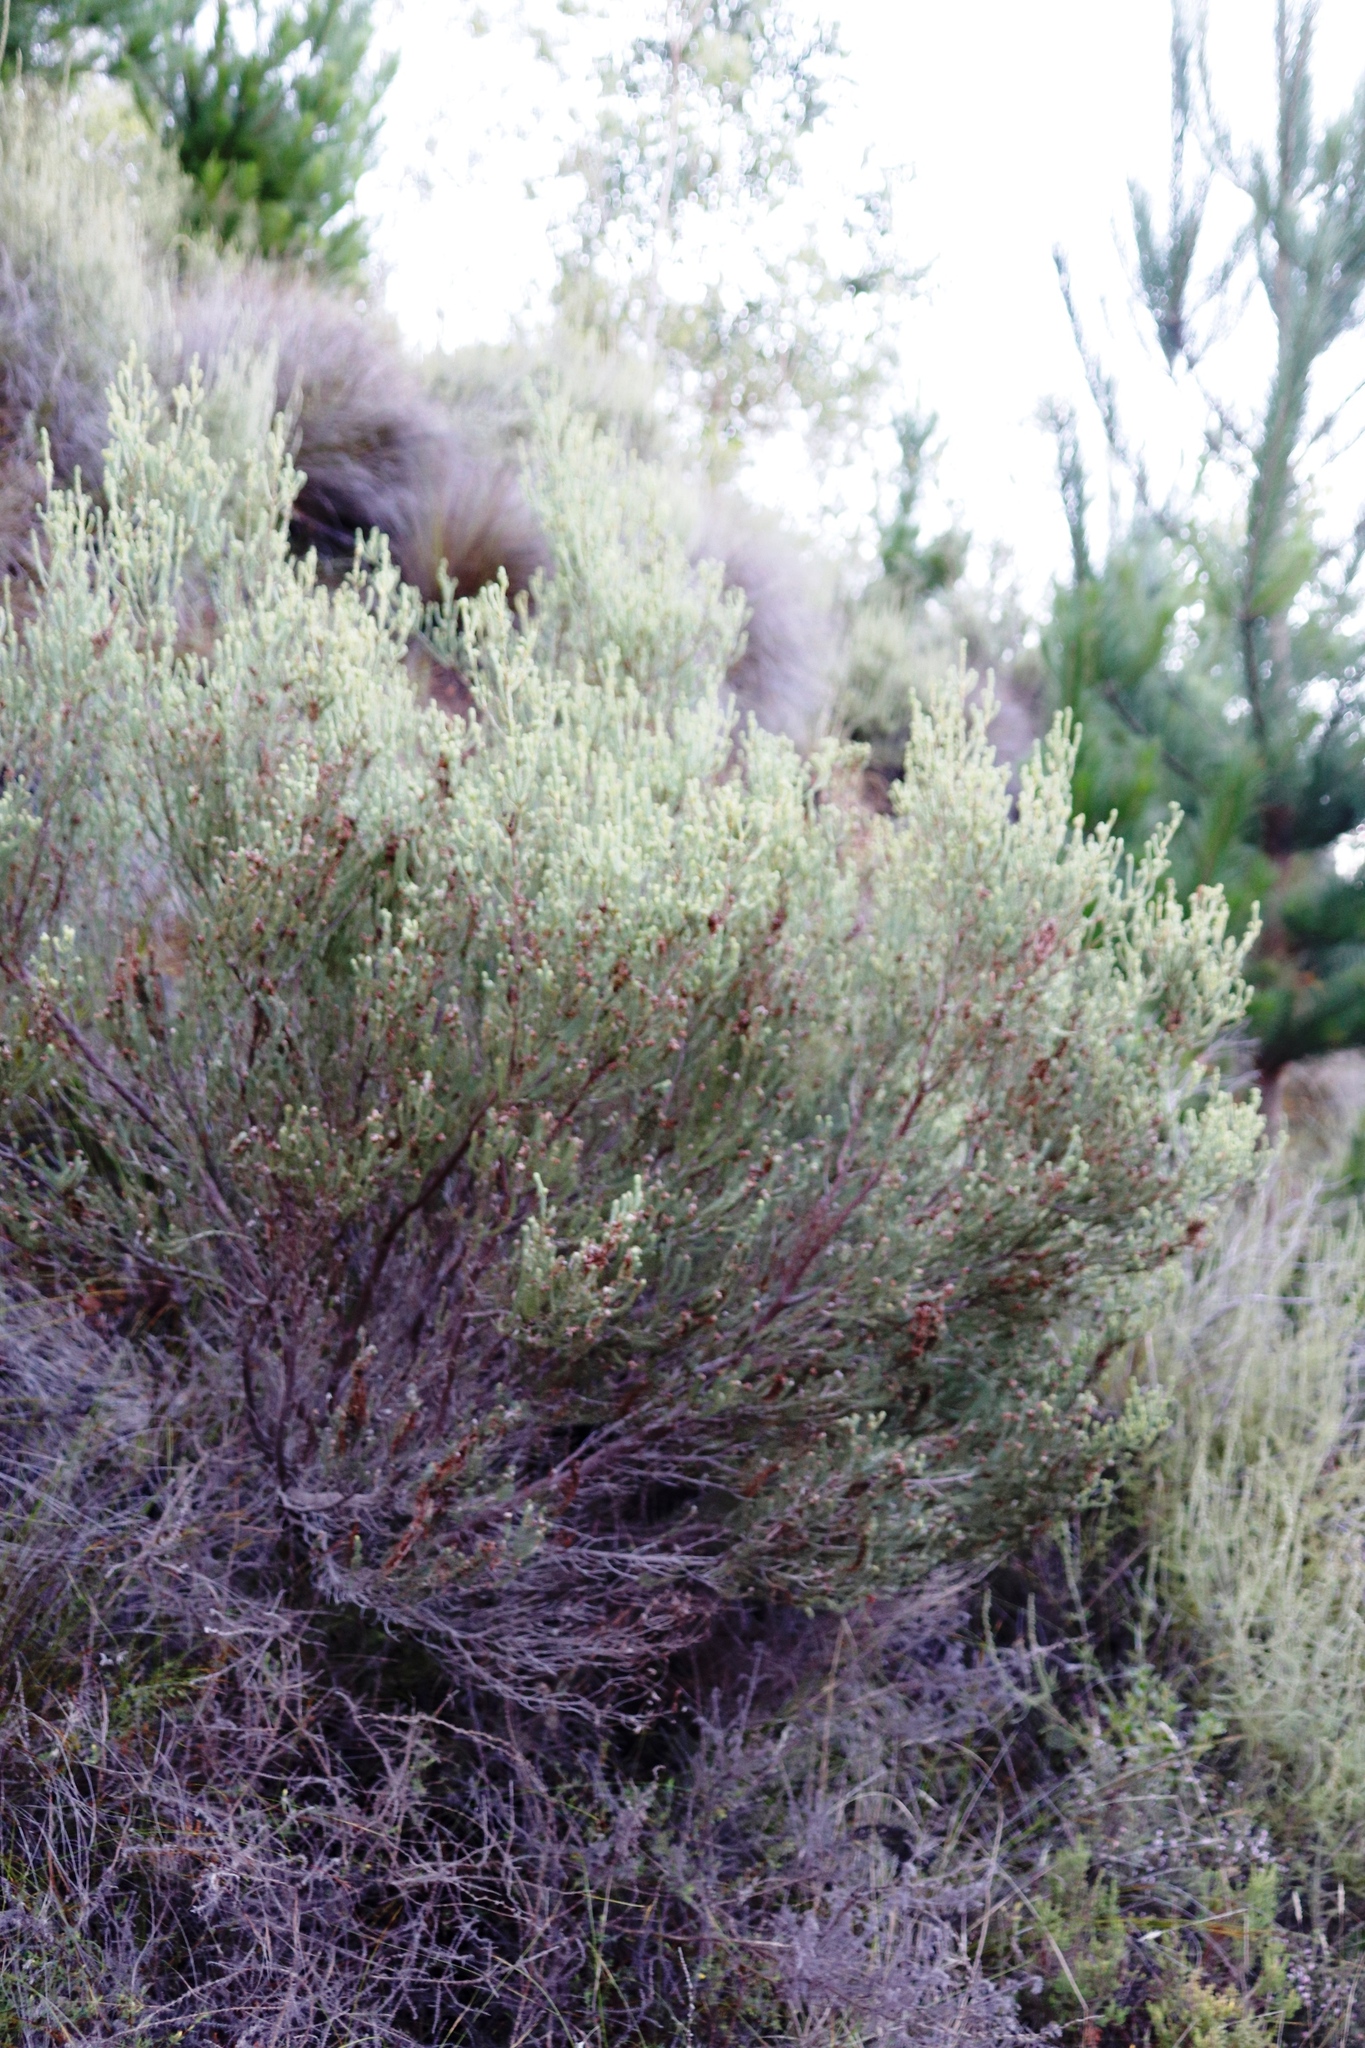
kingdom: Plantae
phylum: Tracheophyta
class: Magnoliopsida
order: Ericales
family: Ericaceae
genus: Erica
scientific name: Erica baccans
